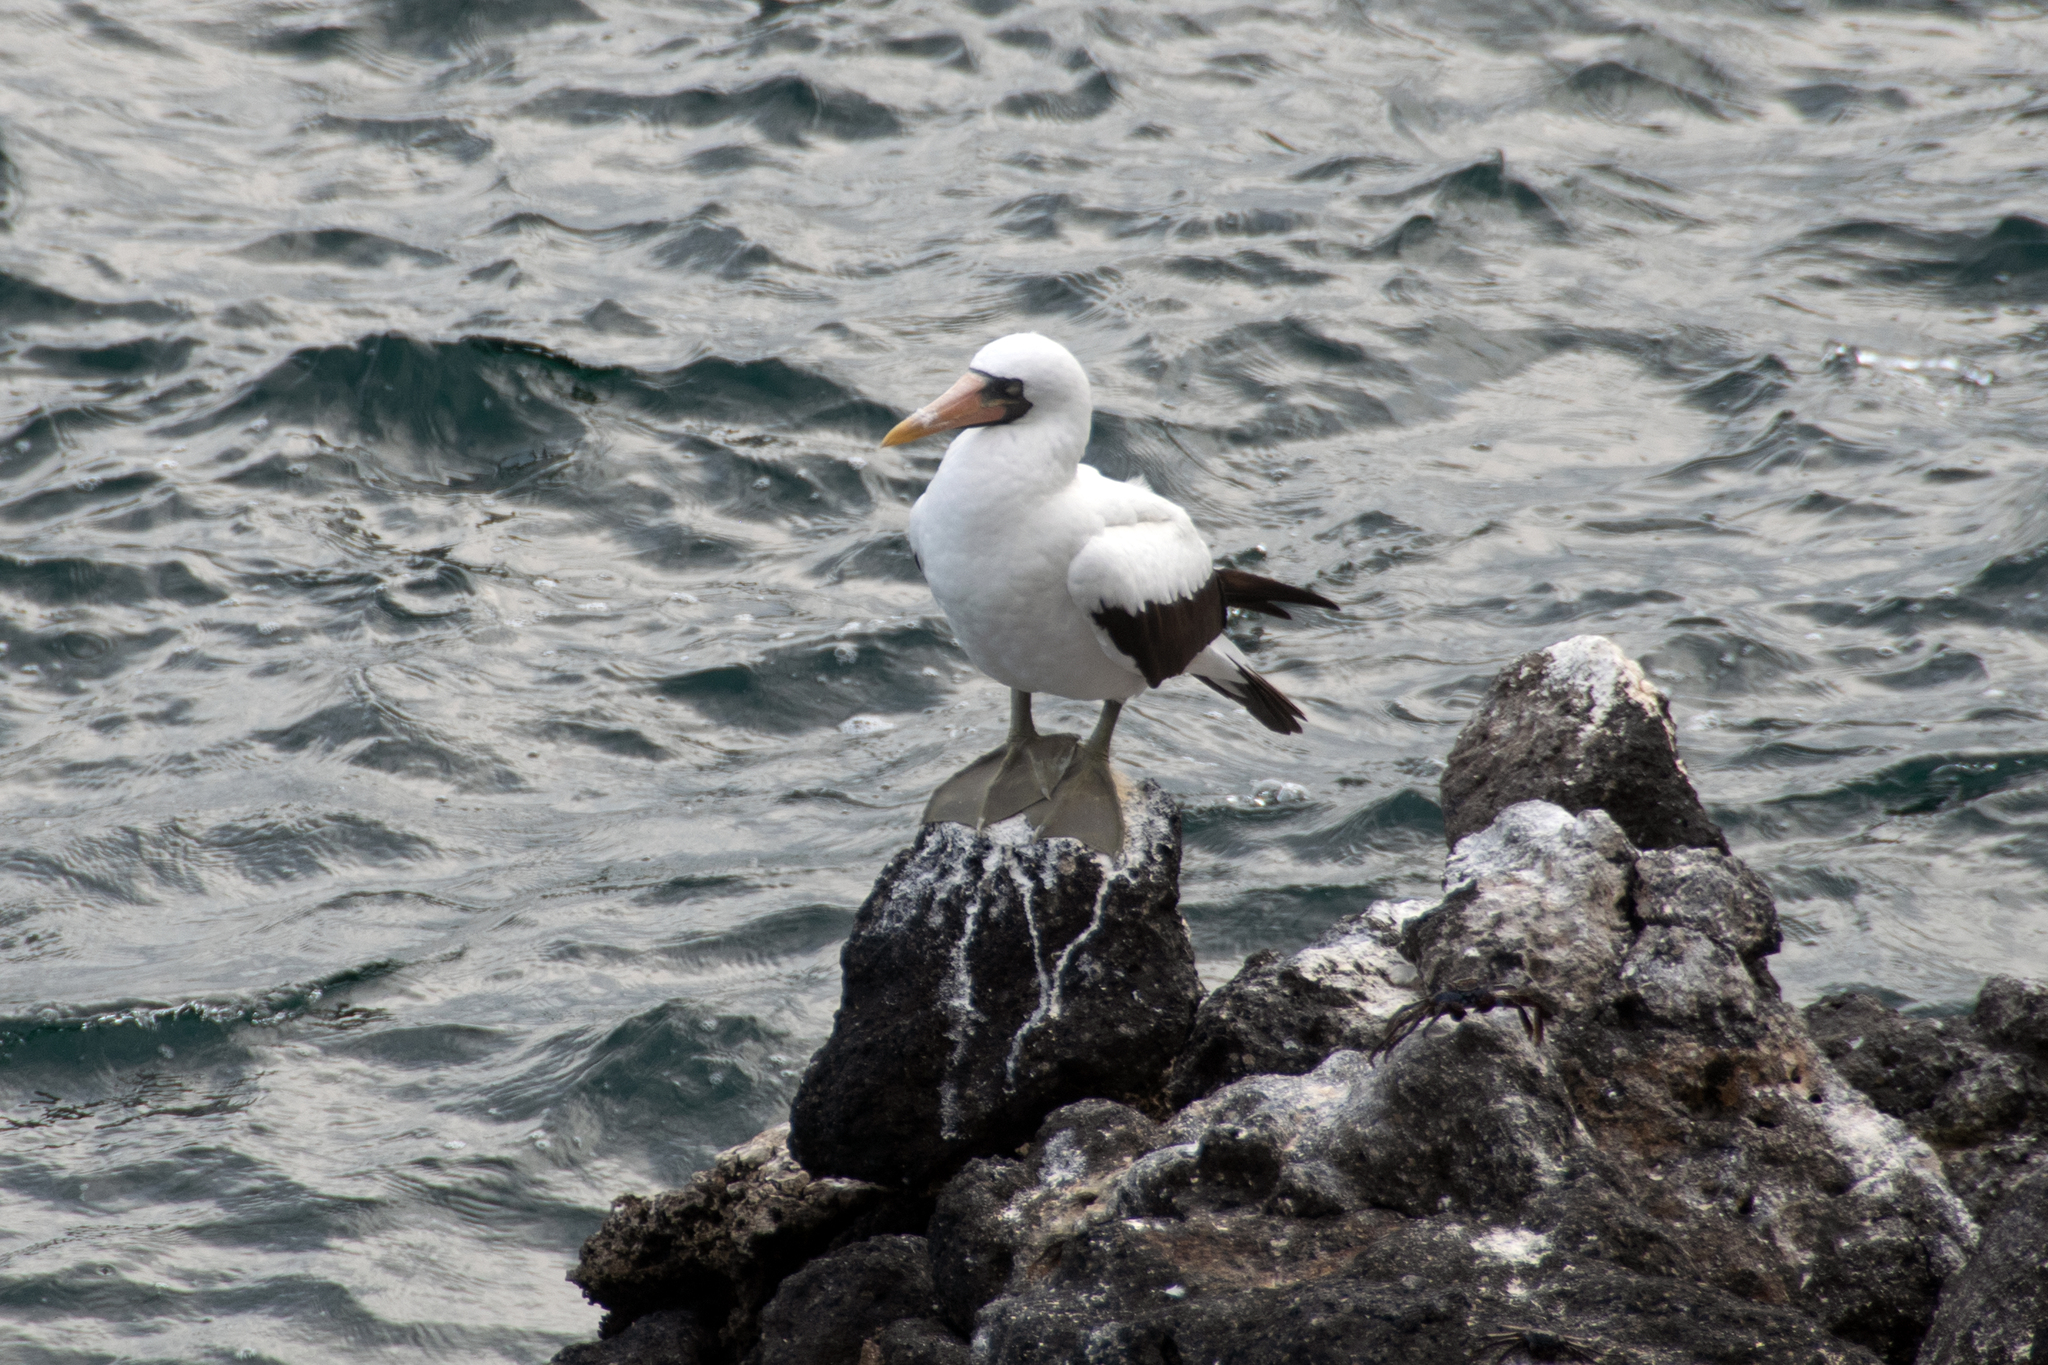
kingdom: Animalia
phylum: Chordata
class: Aves
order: Suliformes
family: Sulidae
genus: Sula
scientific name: Sula granti
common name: Nazca booby
